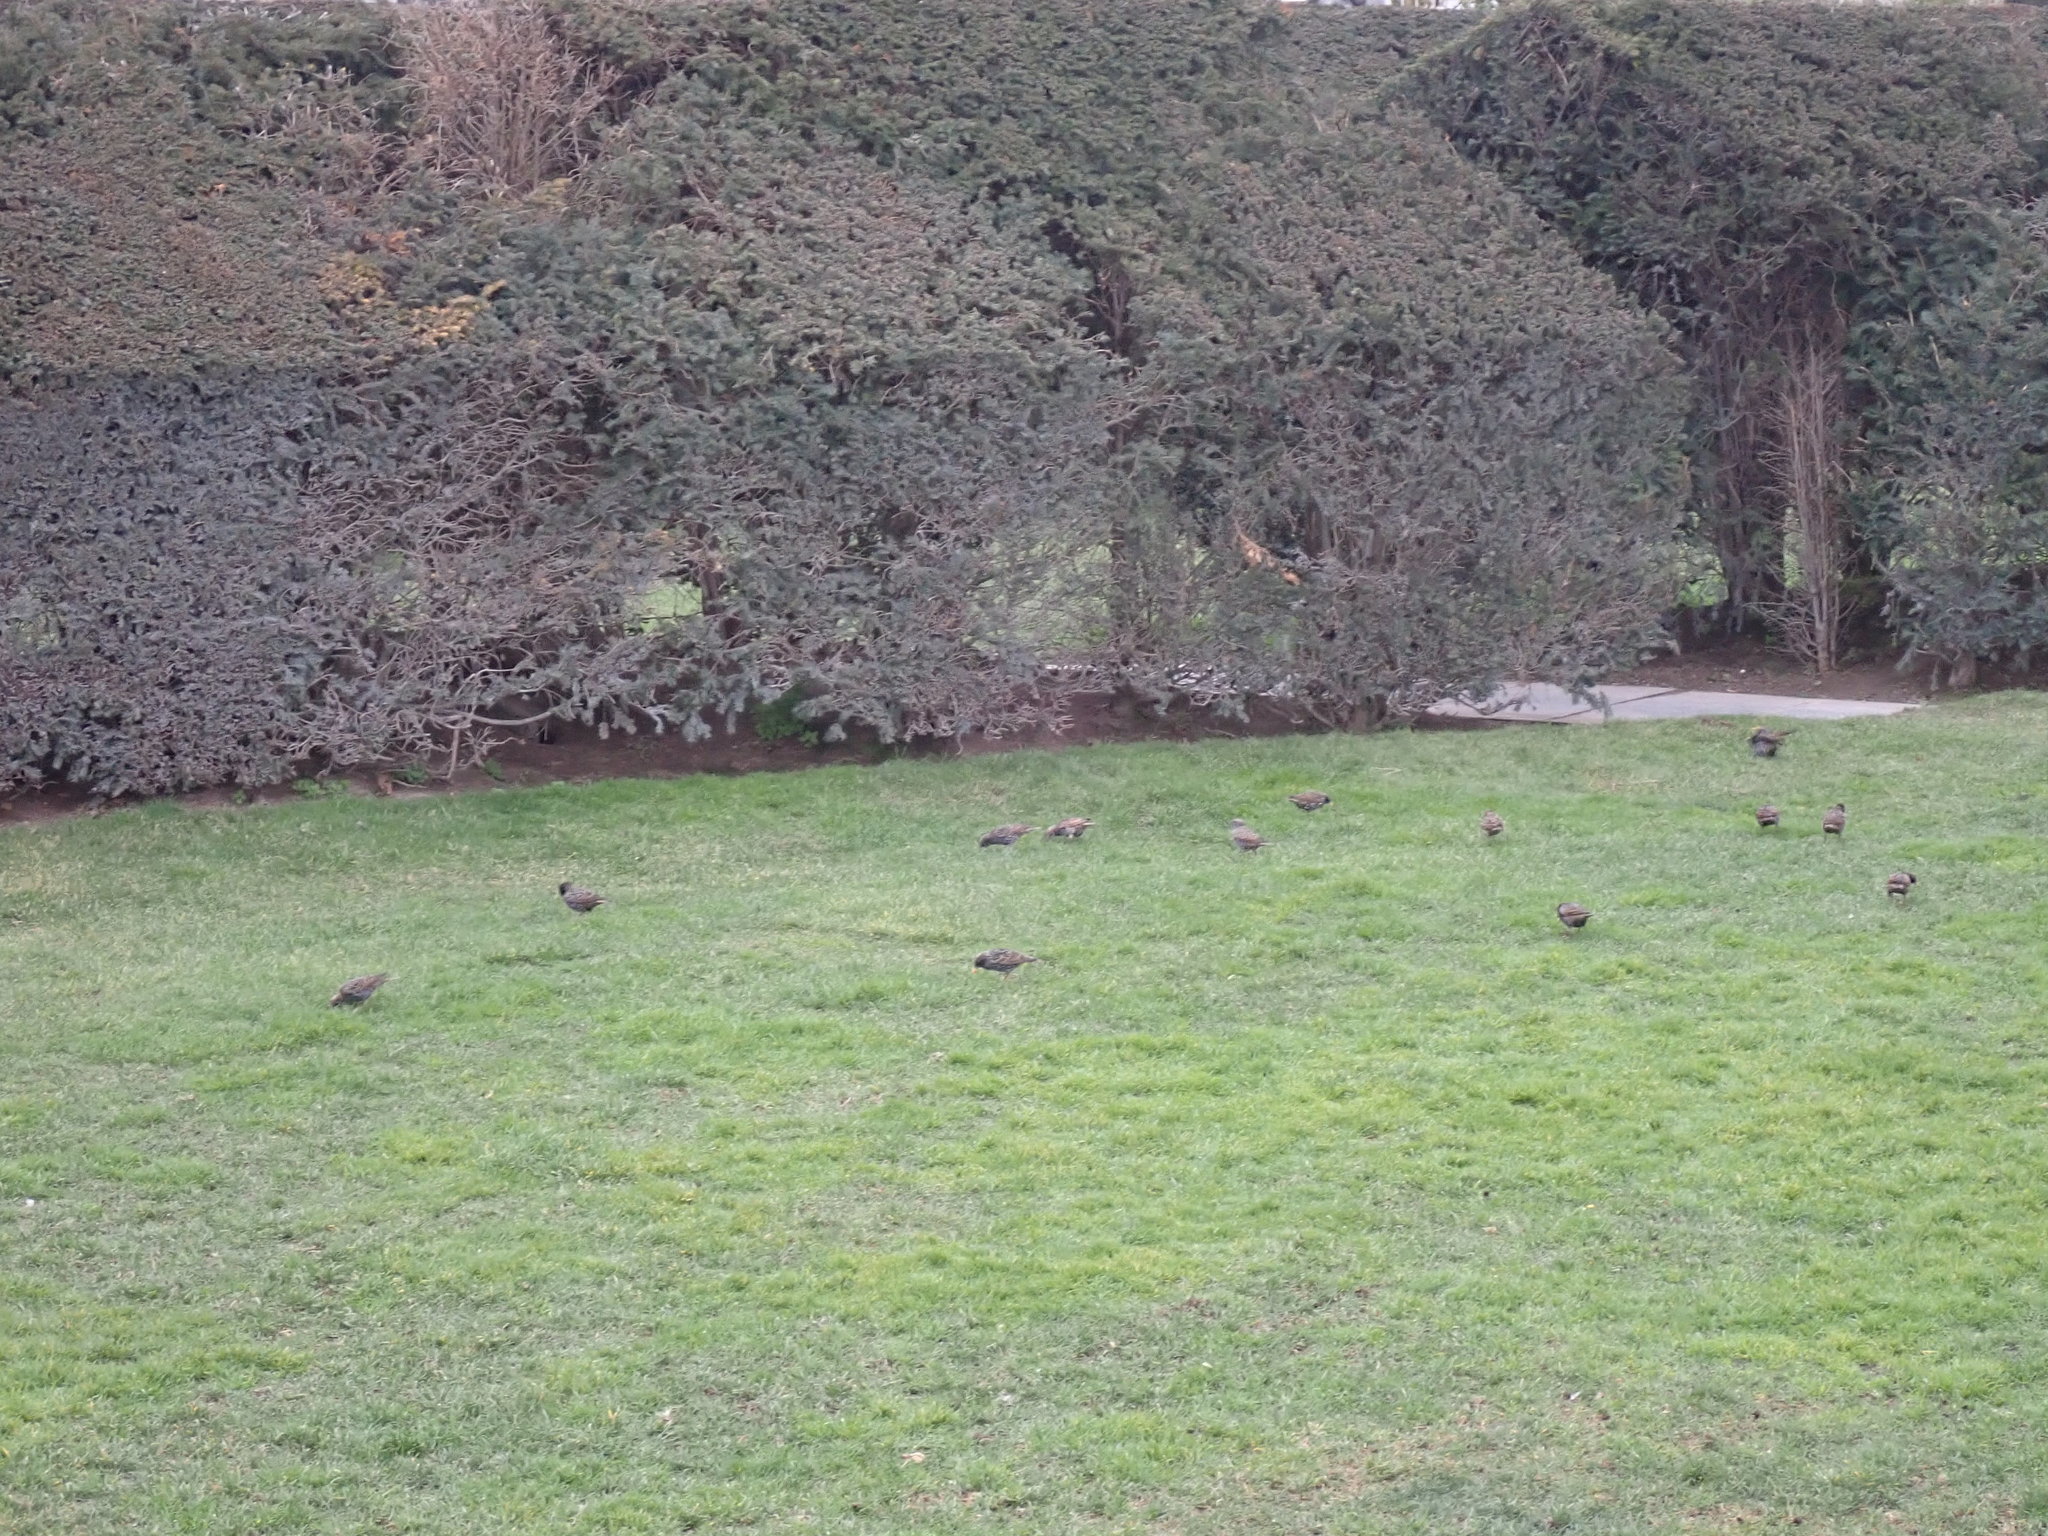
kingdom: Animalia
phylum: Chordata
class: Aves
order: Passeriformes
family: Sturnidae
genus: Sturnus
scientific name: Sturnus vulgaris
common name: Common starling
